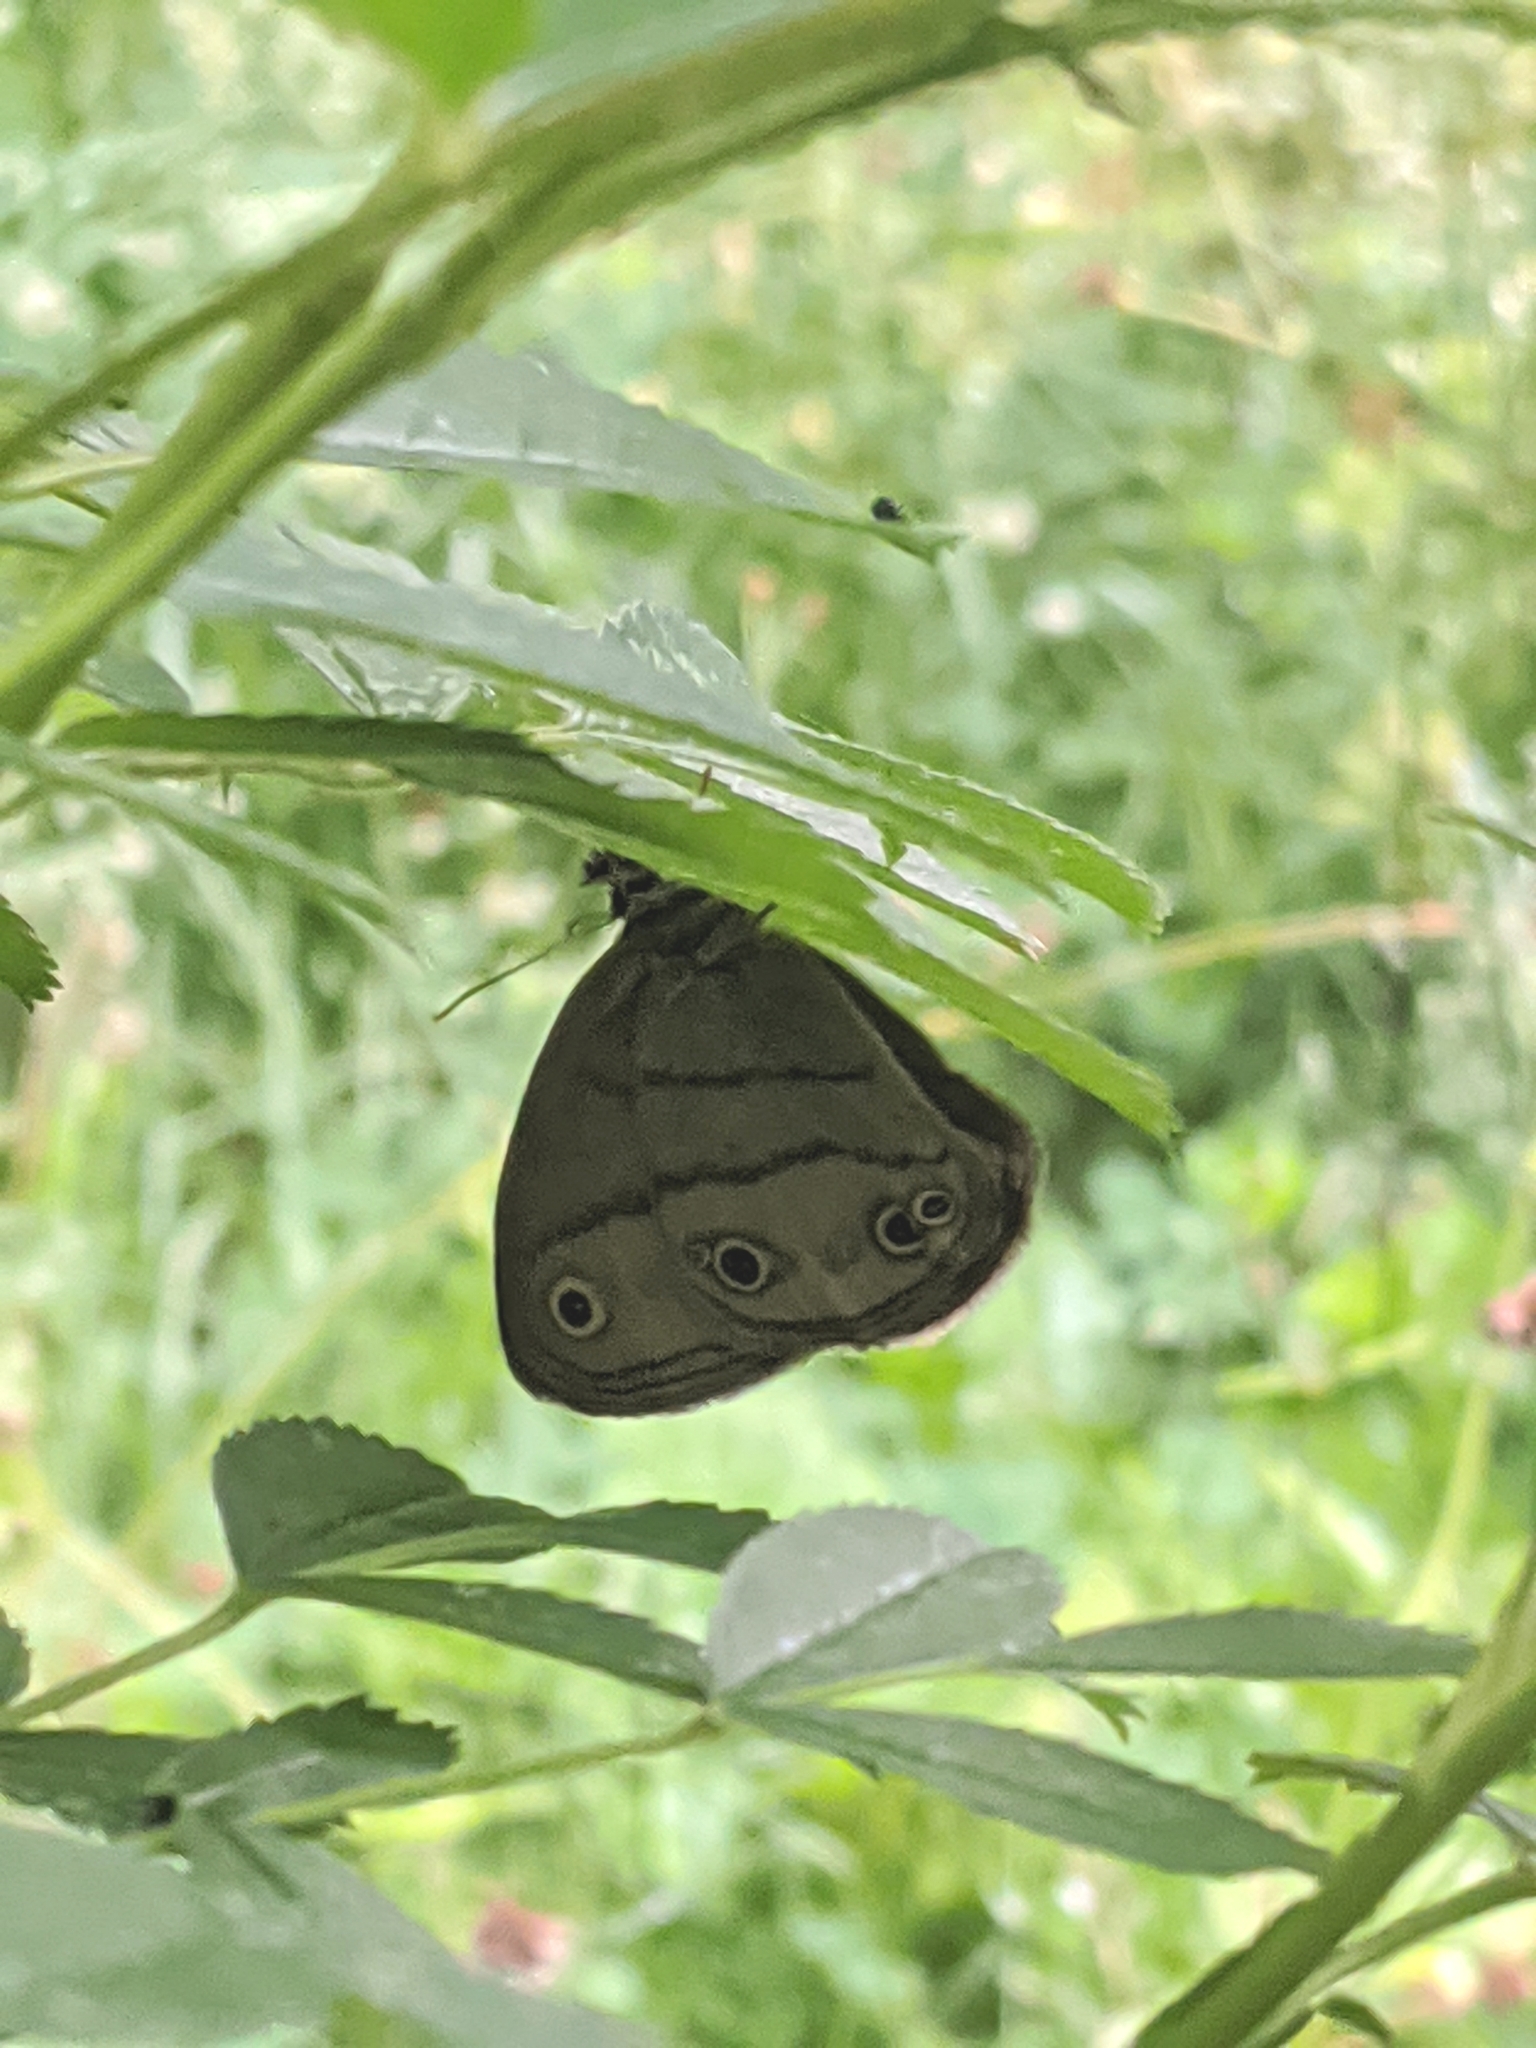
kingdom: Animalia
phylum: Arthropoda
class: Insecta
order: Lepidoptera
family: Nymphalidae
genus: Euptychia
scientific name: Euptychia cymela
